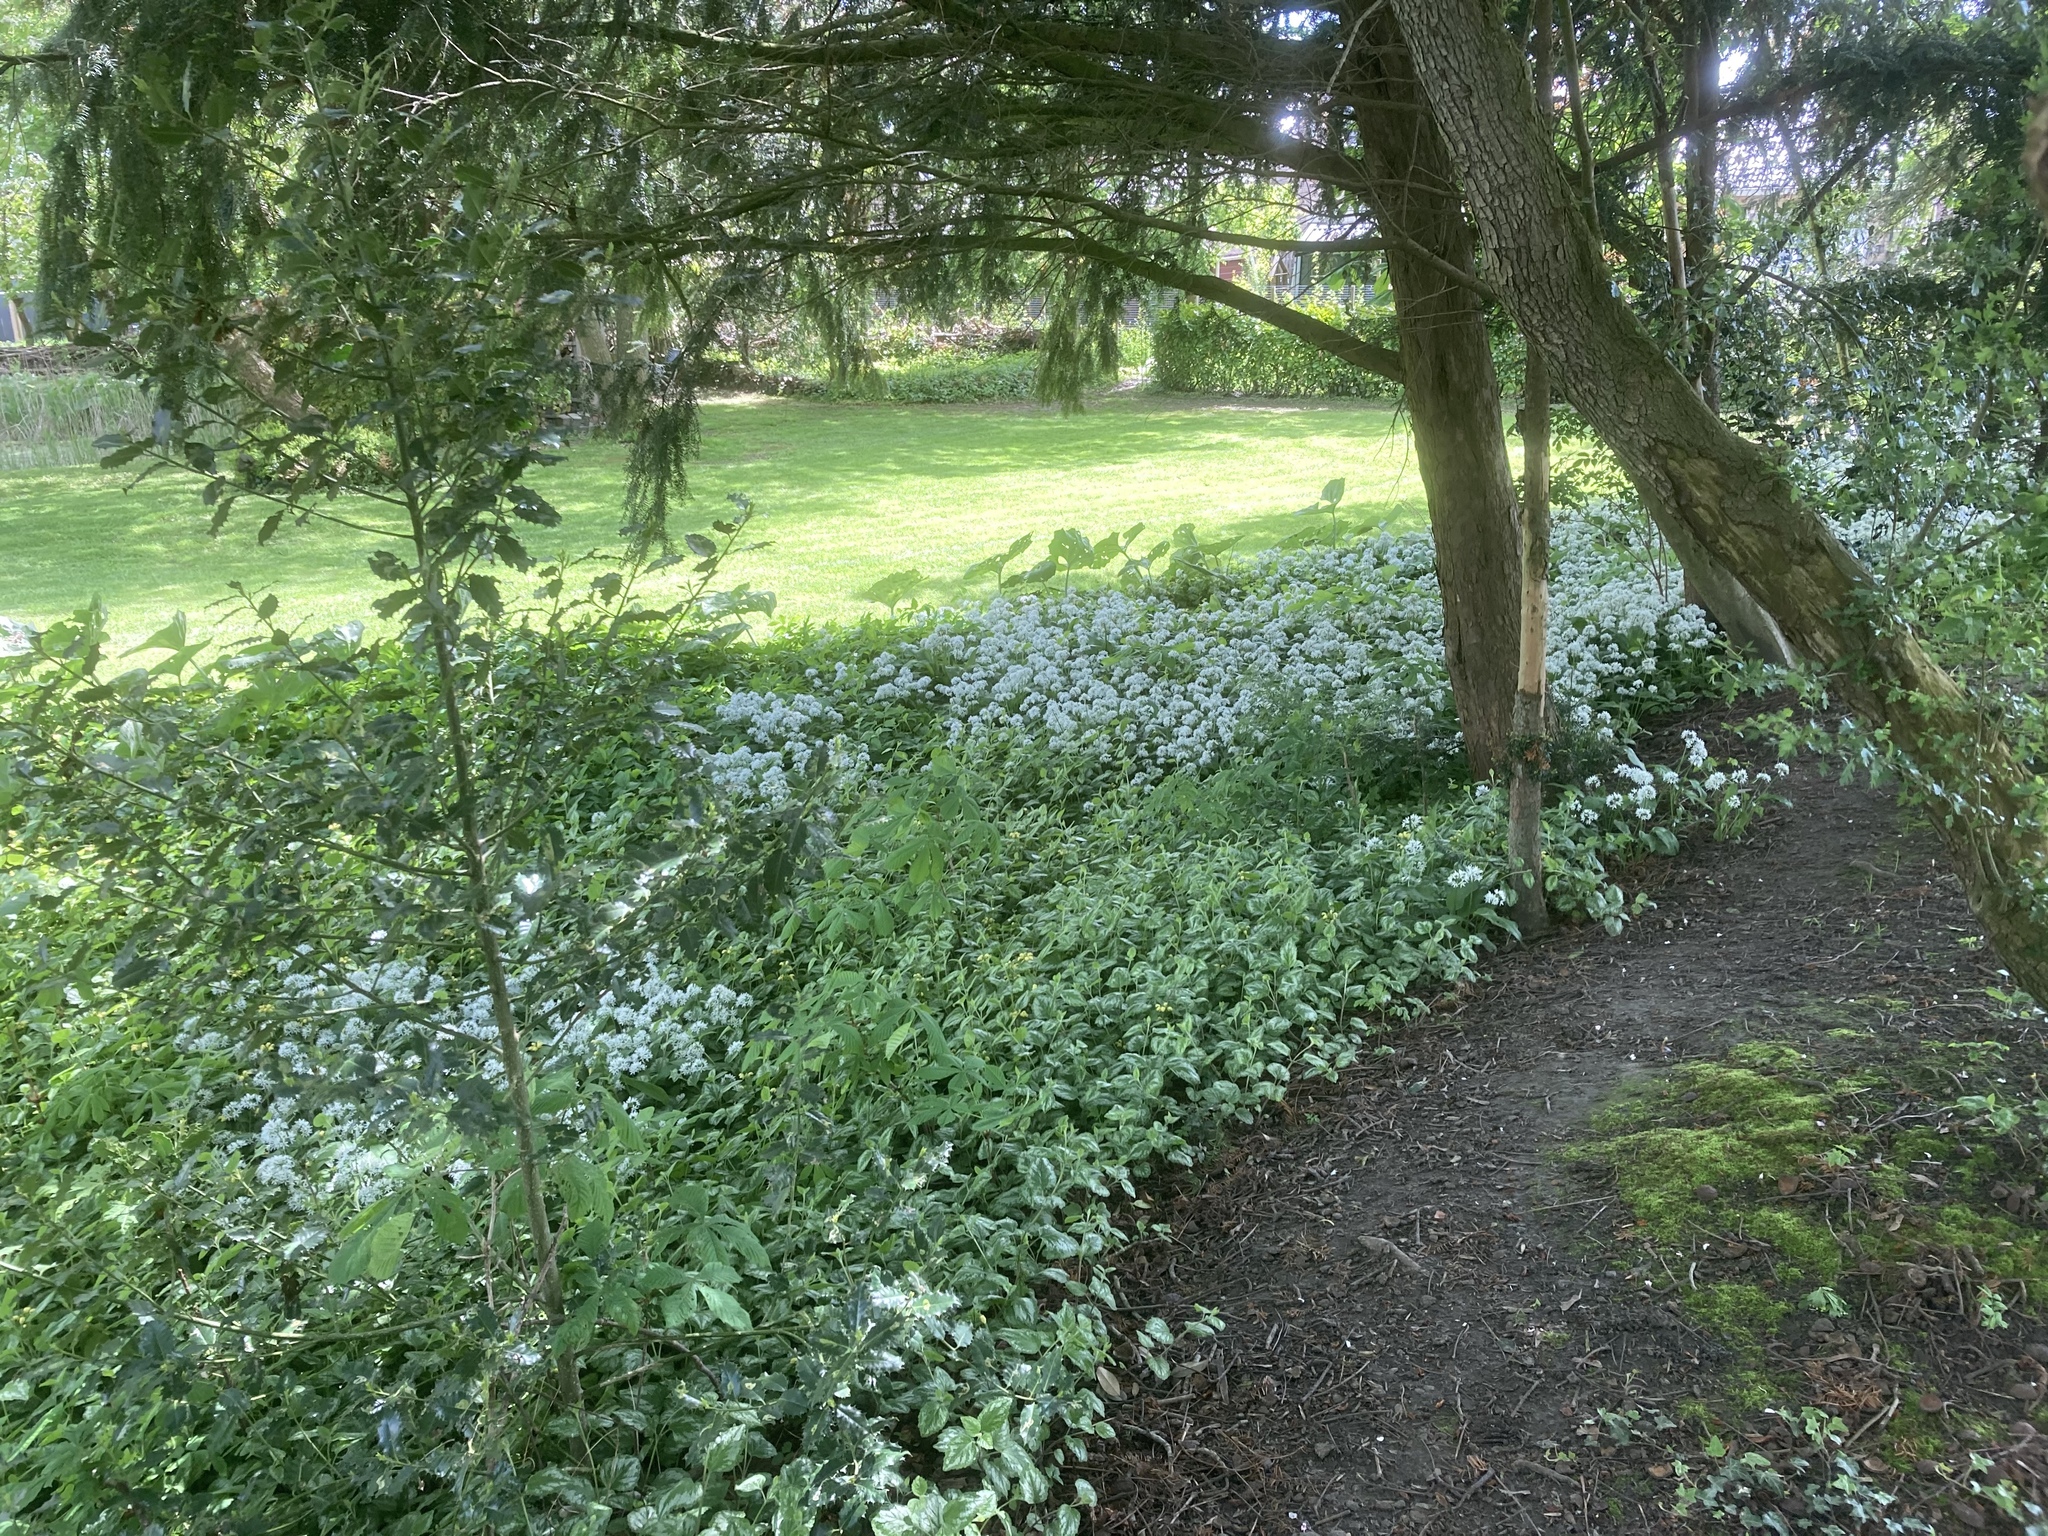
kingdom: Plantae
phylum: Tracheophyta
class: Liliopsida
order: Asparagales
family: Amaryllidaceae
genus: Allium
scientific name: Allium ursinum
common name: Ramsons
